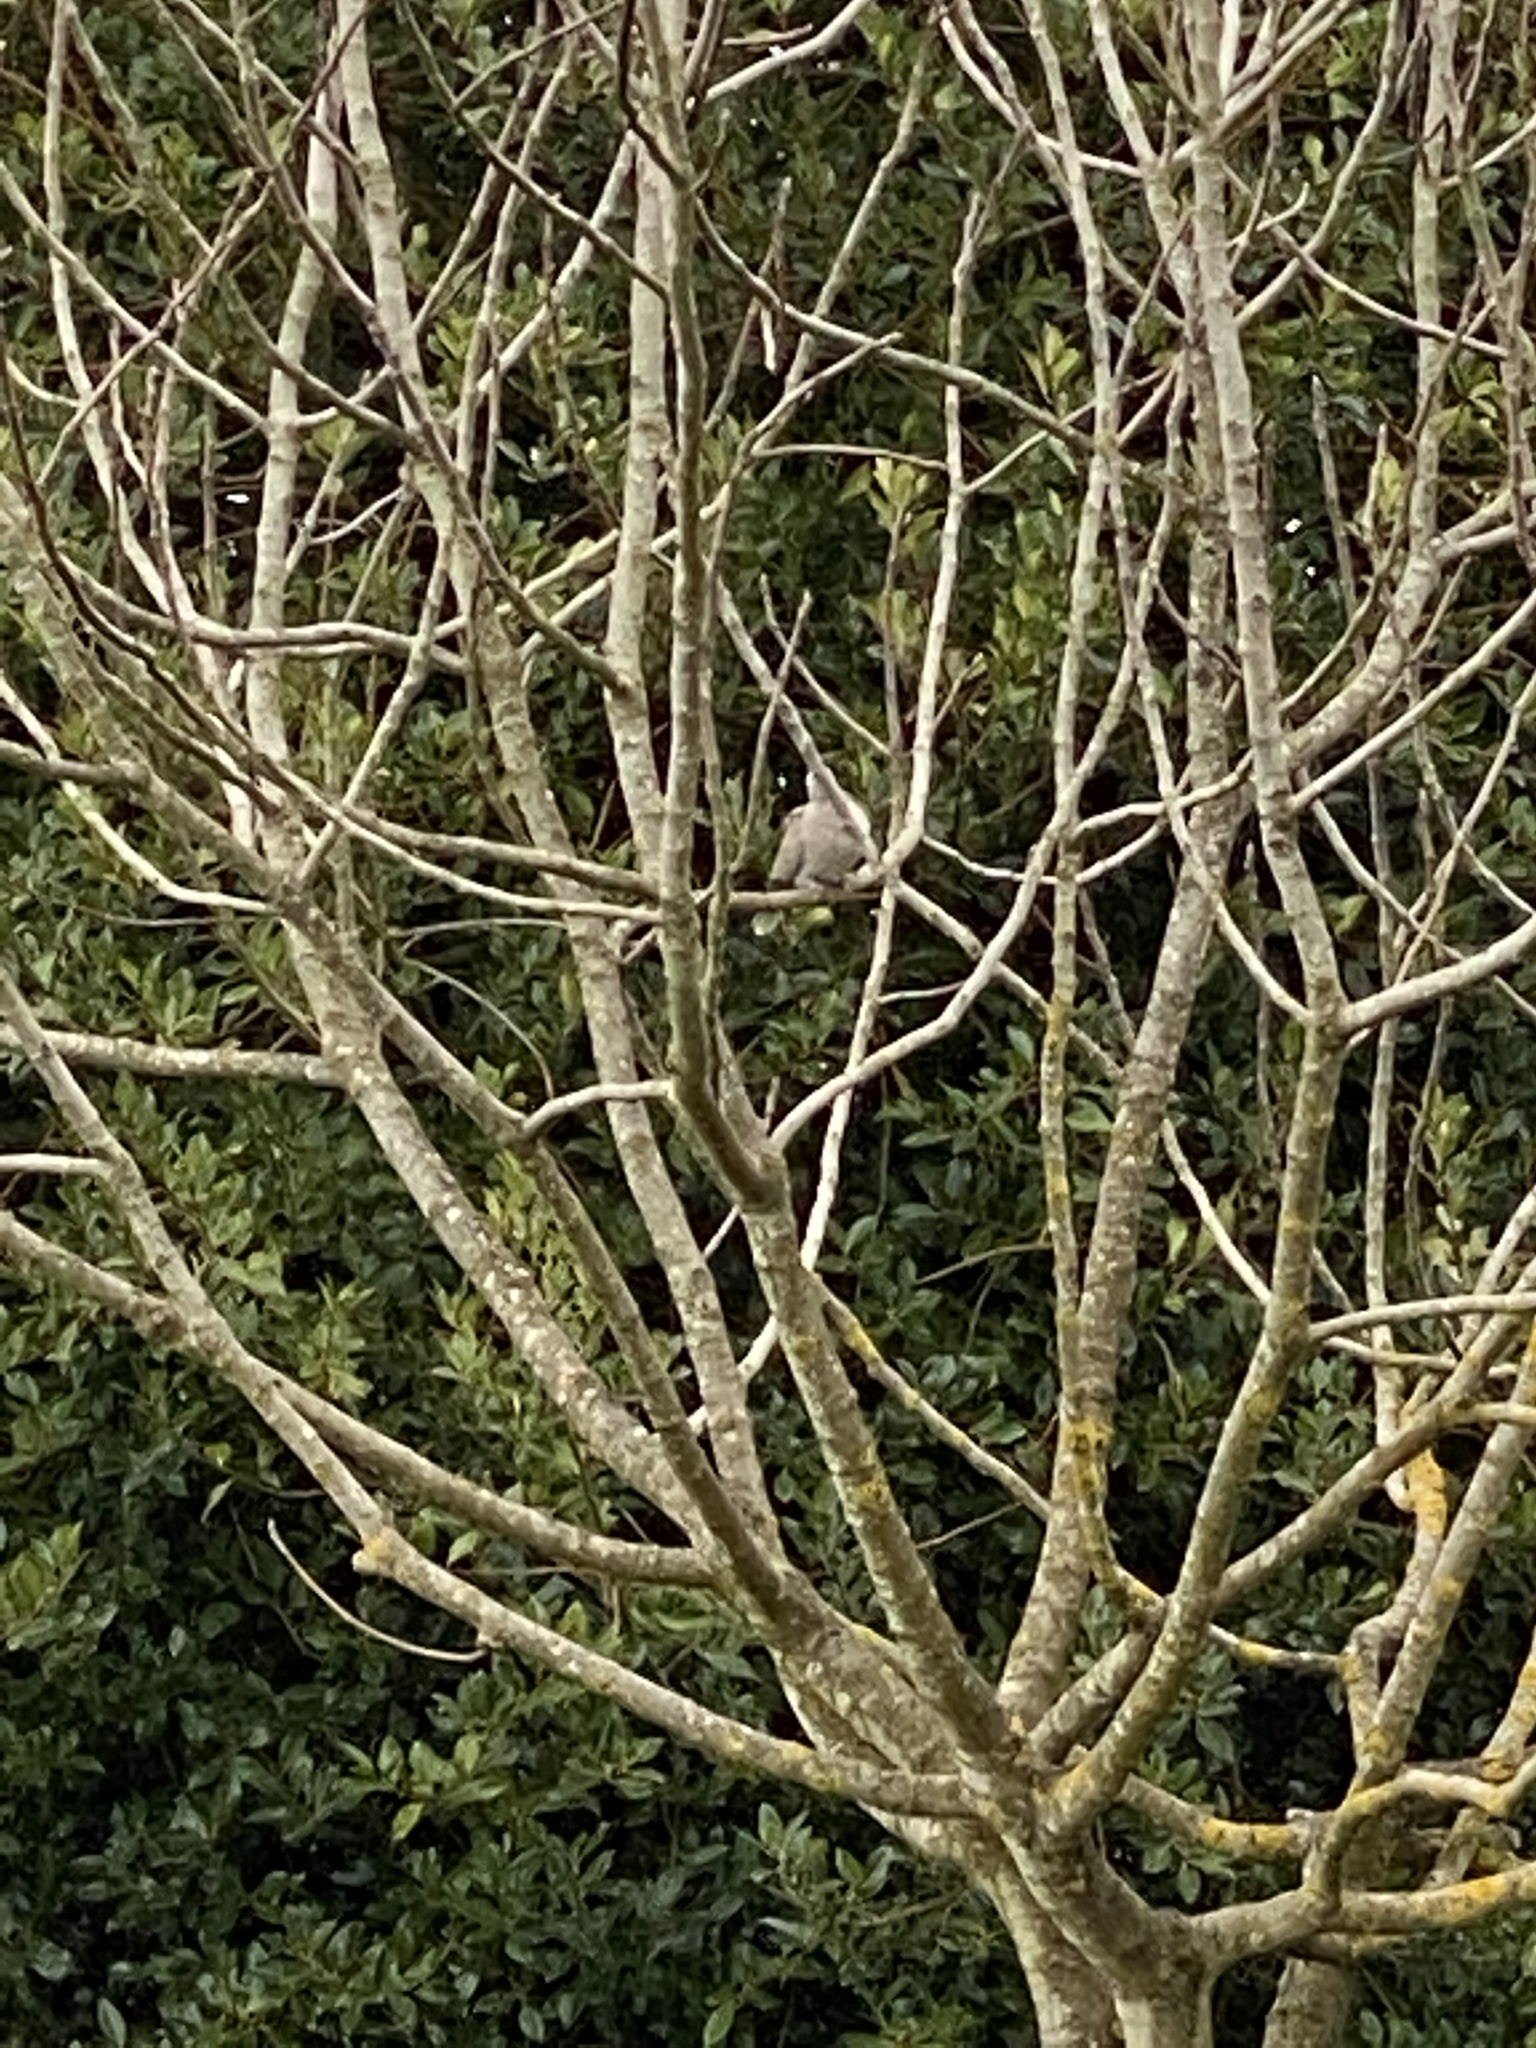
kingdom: Animalia
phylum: Chordata
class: Aves
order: Columbiformes
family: Columbidae
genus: Zenaida
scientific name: Zenaida macroura
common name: Mourning dove
